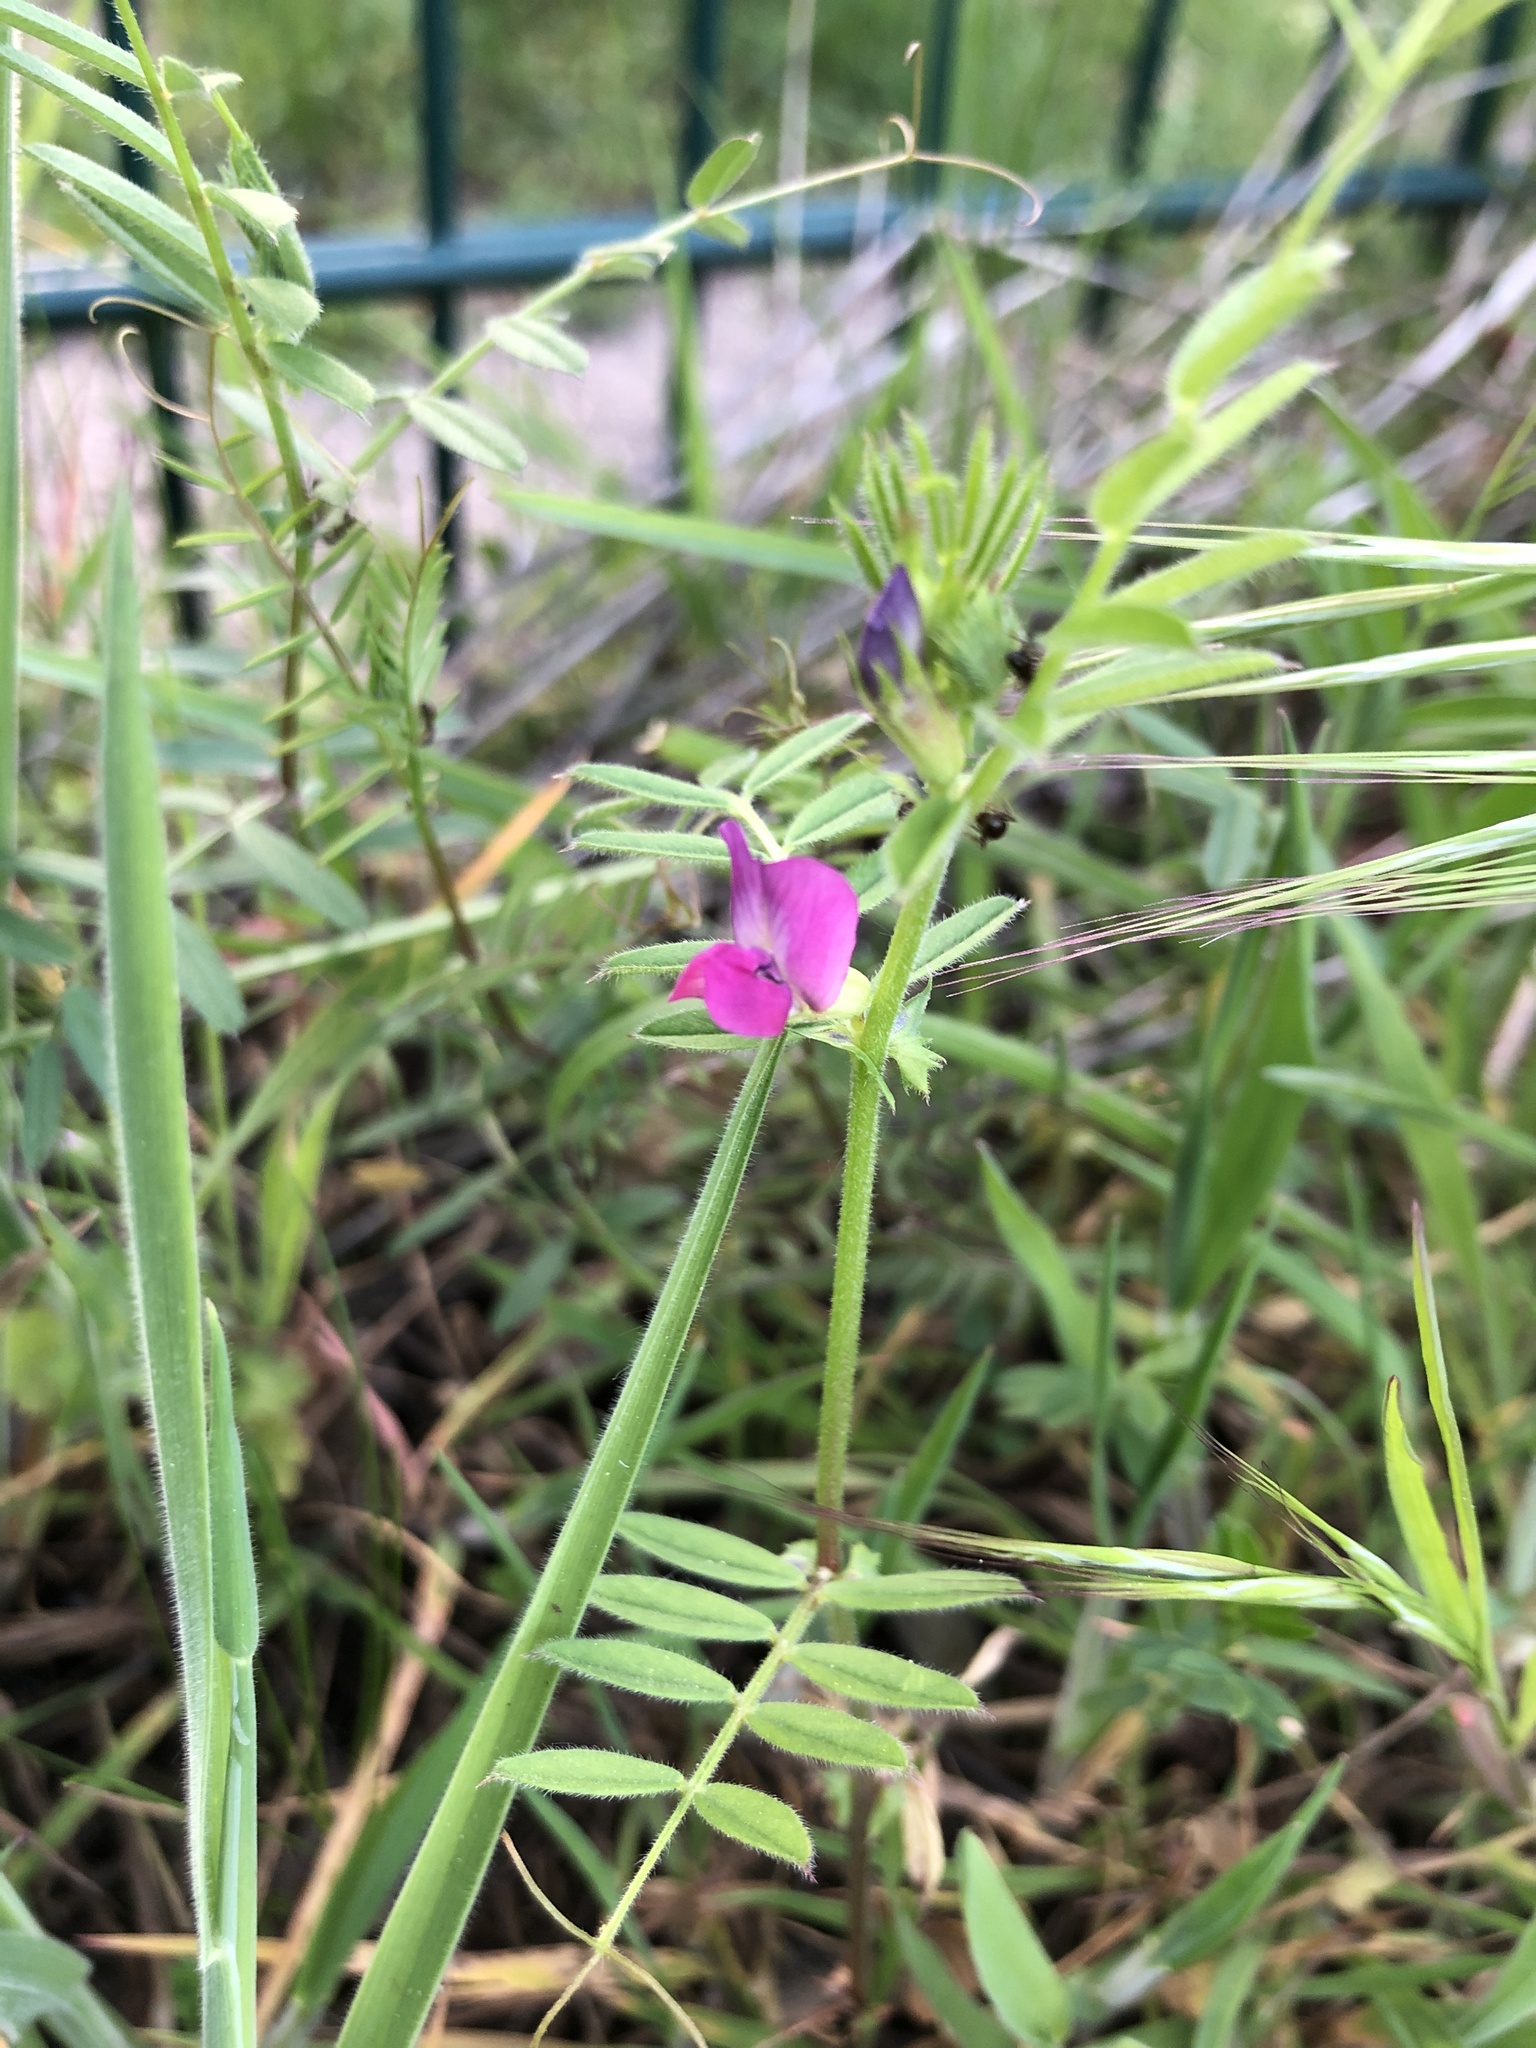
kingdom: Plantae
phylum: Tracheophyta
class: Magnoliopsida
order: Fabales
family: Fabaceae
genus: Vicia
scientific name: Vicia sativa
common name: Garden vetch
